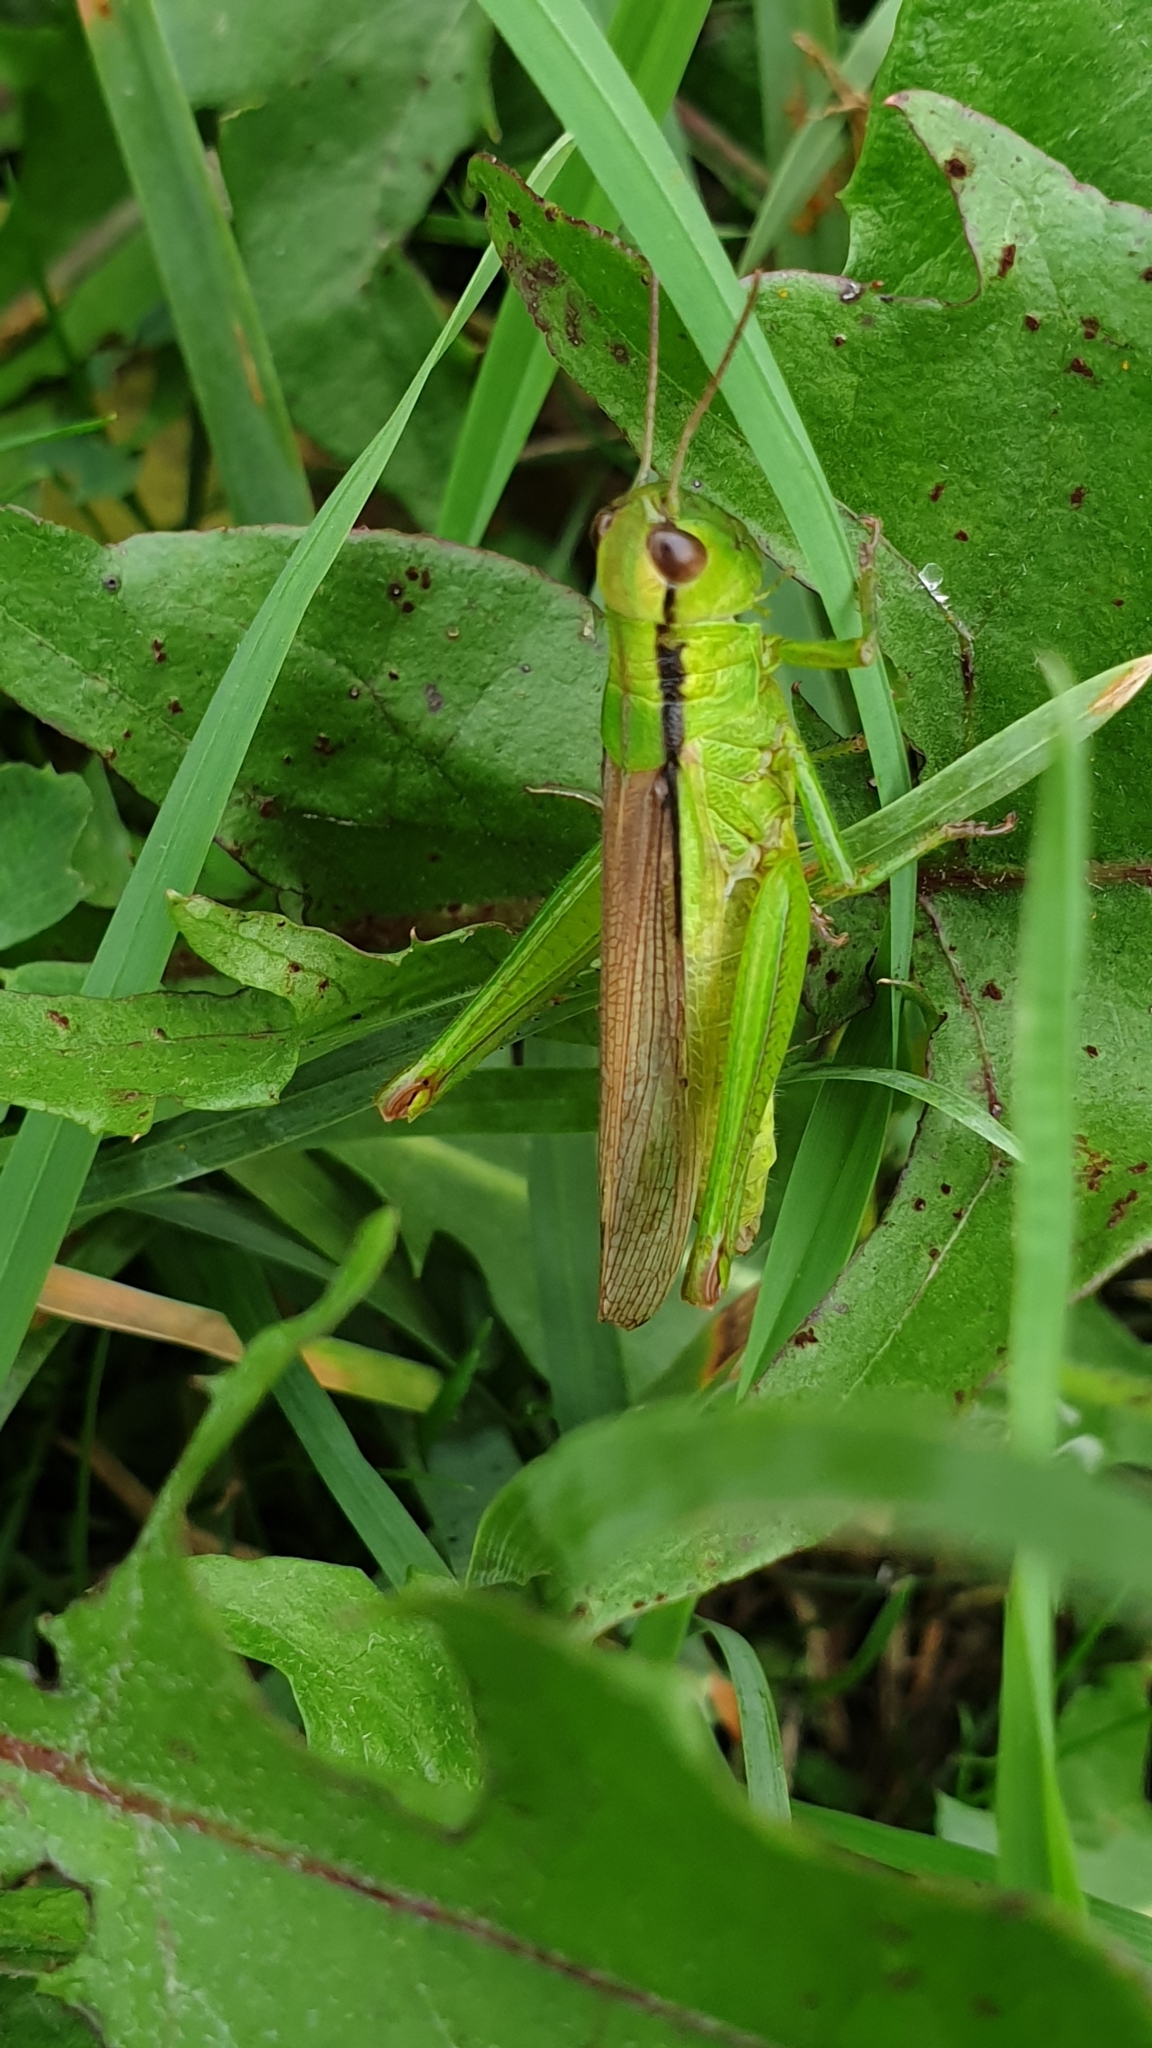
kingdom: Animalia
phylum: Arthropoda
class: Insecta
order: Orthoptera
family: Acrididae
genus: Mecostethus
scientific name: Mecostethus parapleurus
